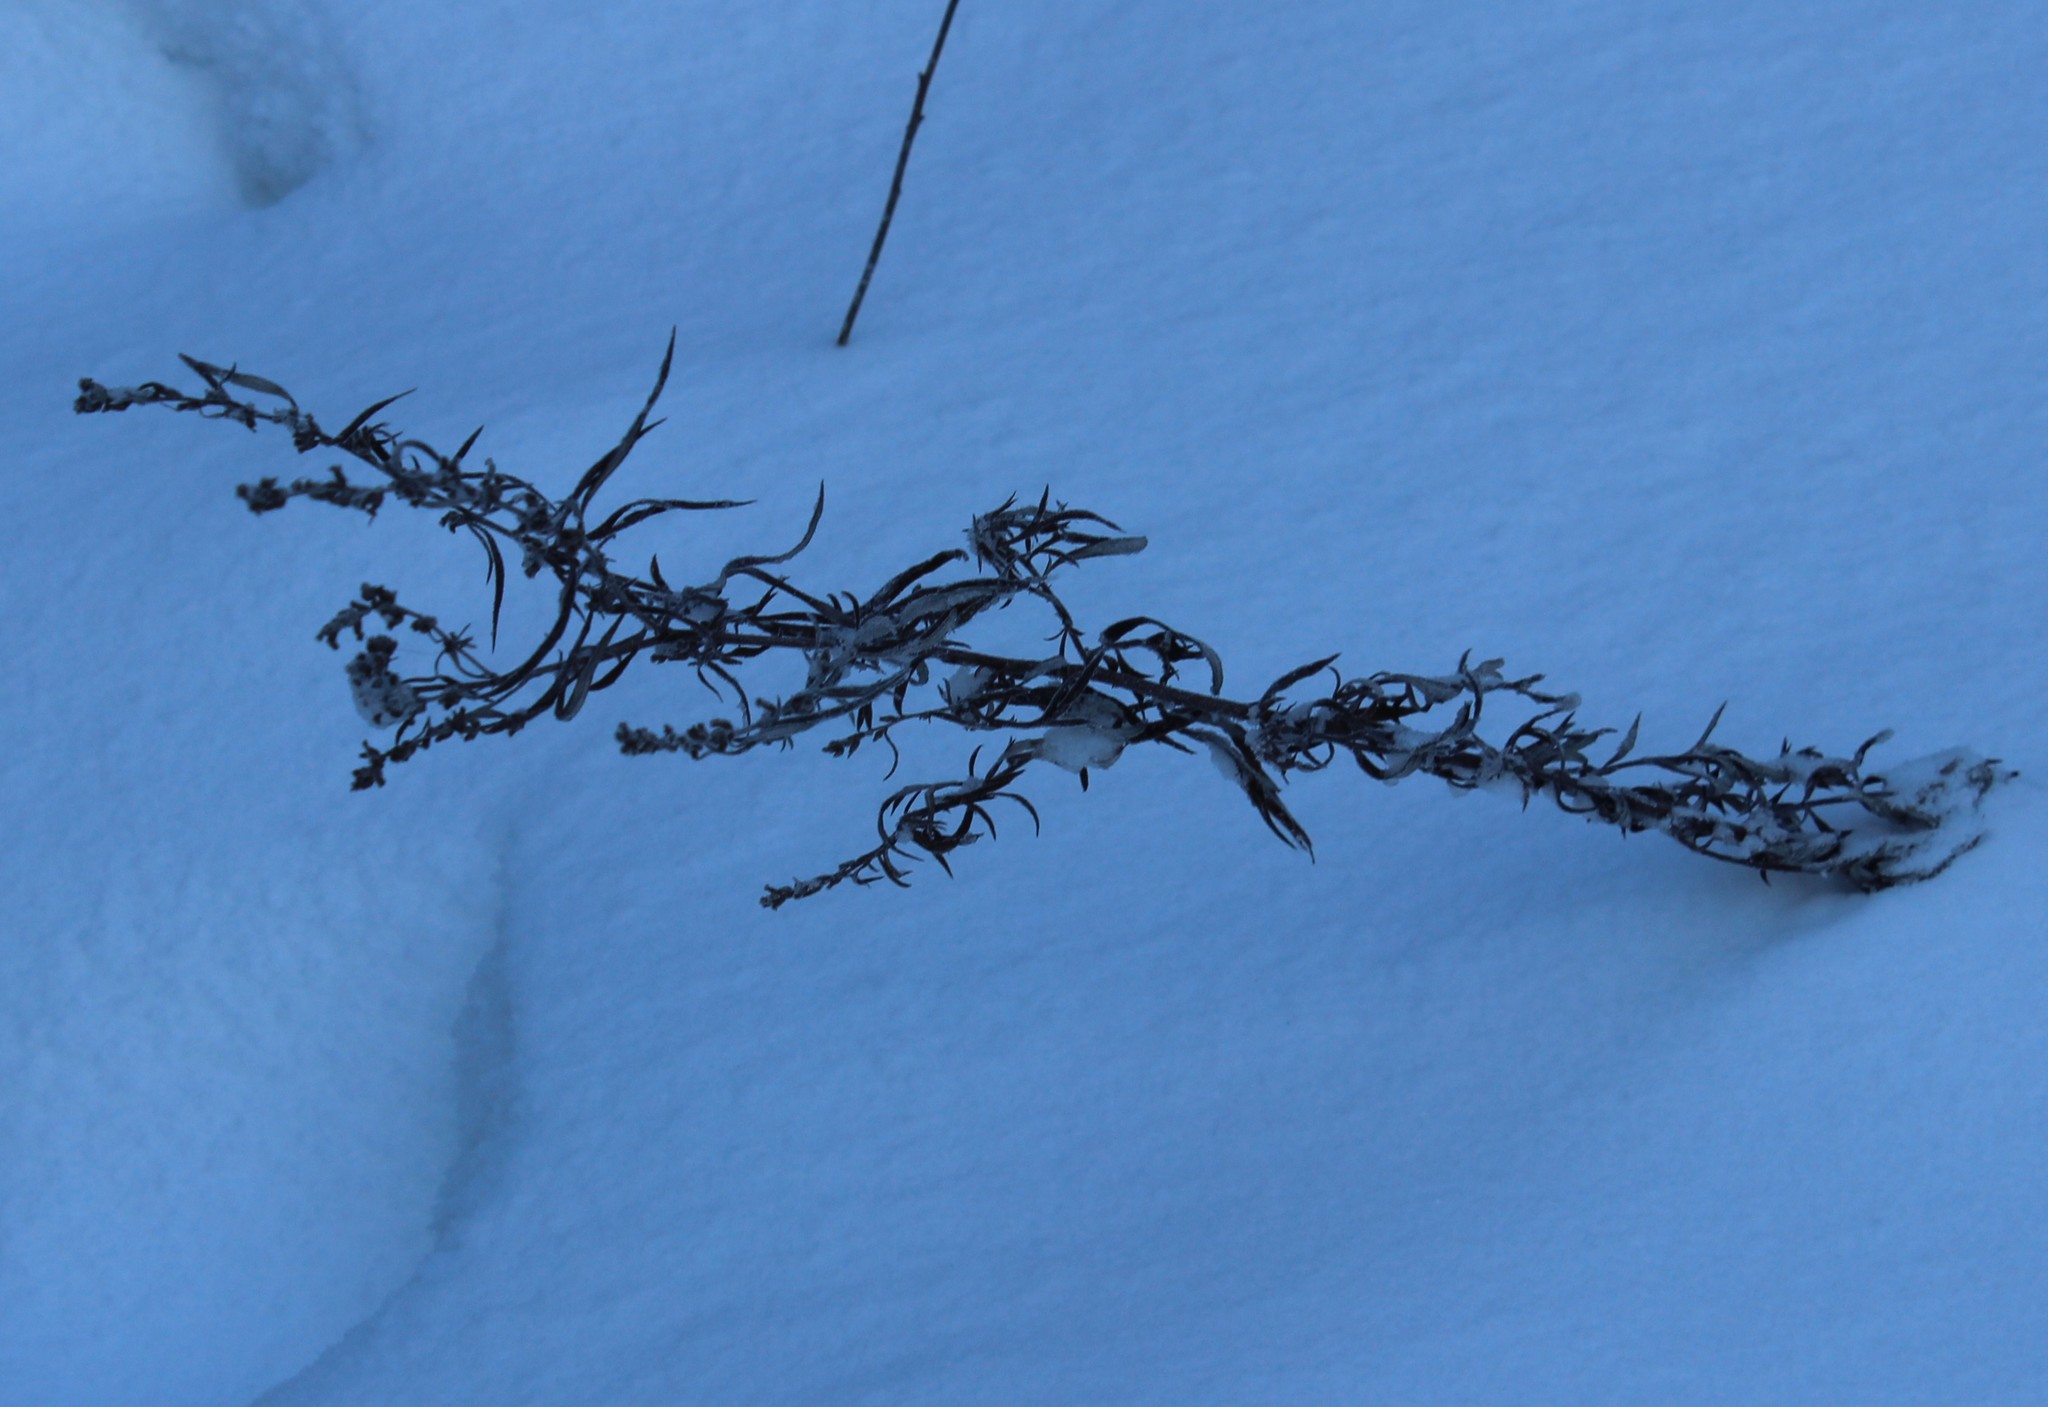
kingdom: Plantae
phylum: Tracheophyta
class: Magnoliopsida
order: Asterales
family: Asteraceae
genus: Artemisia
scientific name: Artemisia vulgaris
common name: Mugwort
